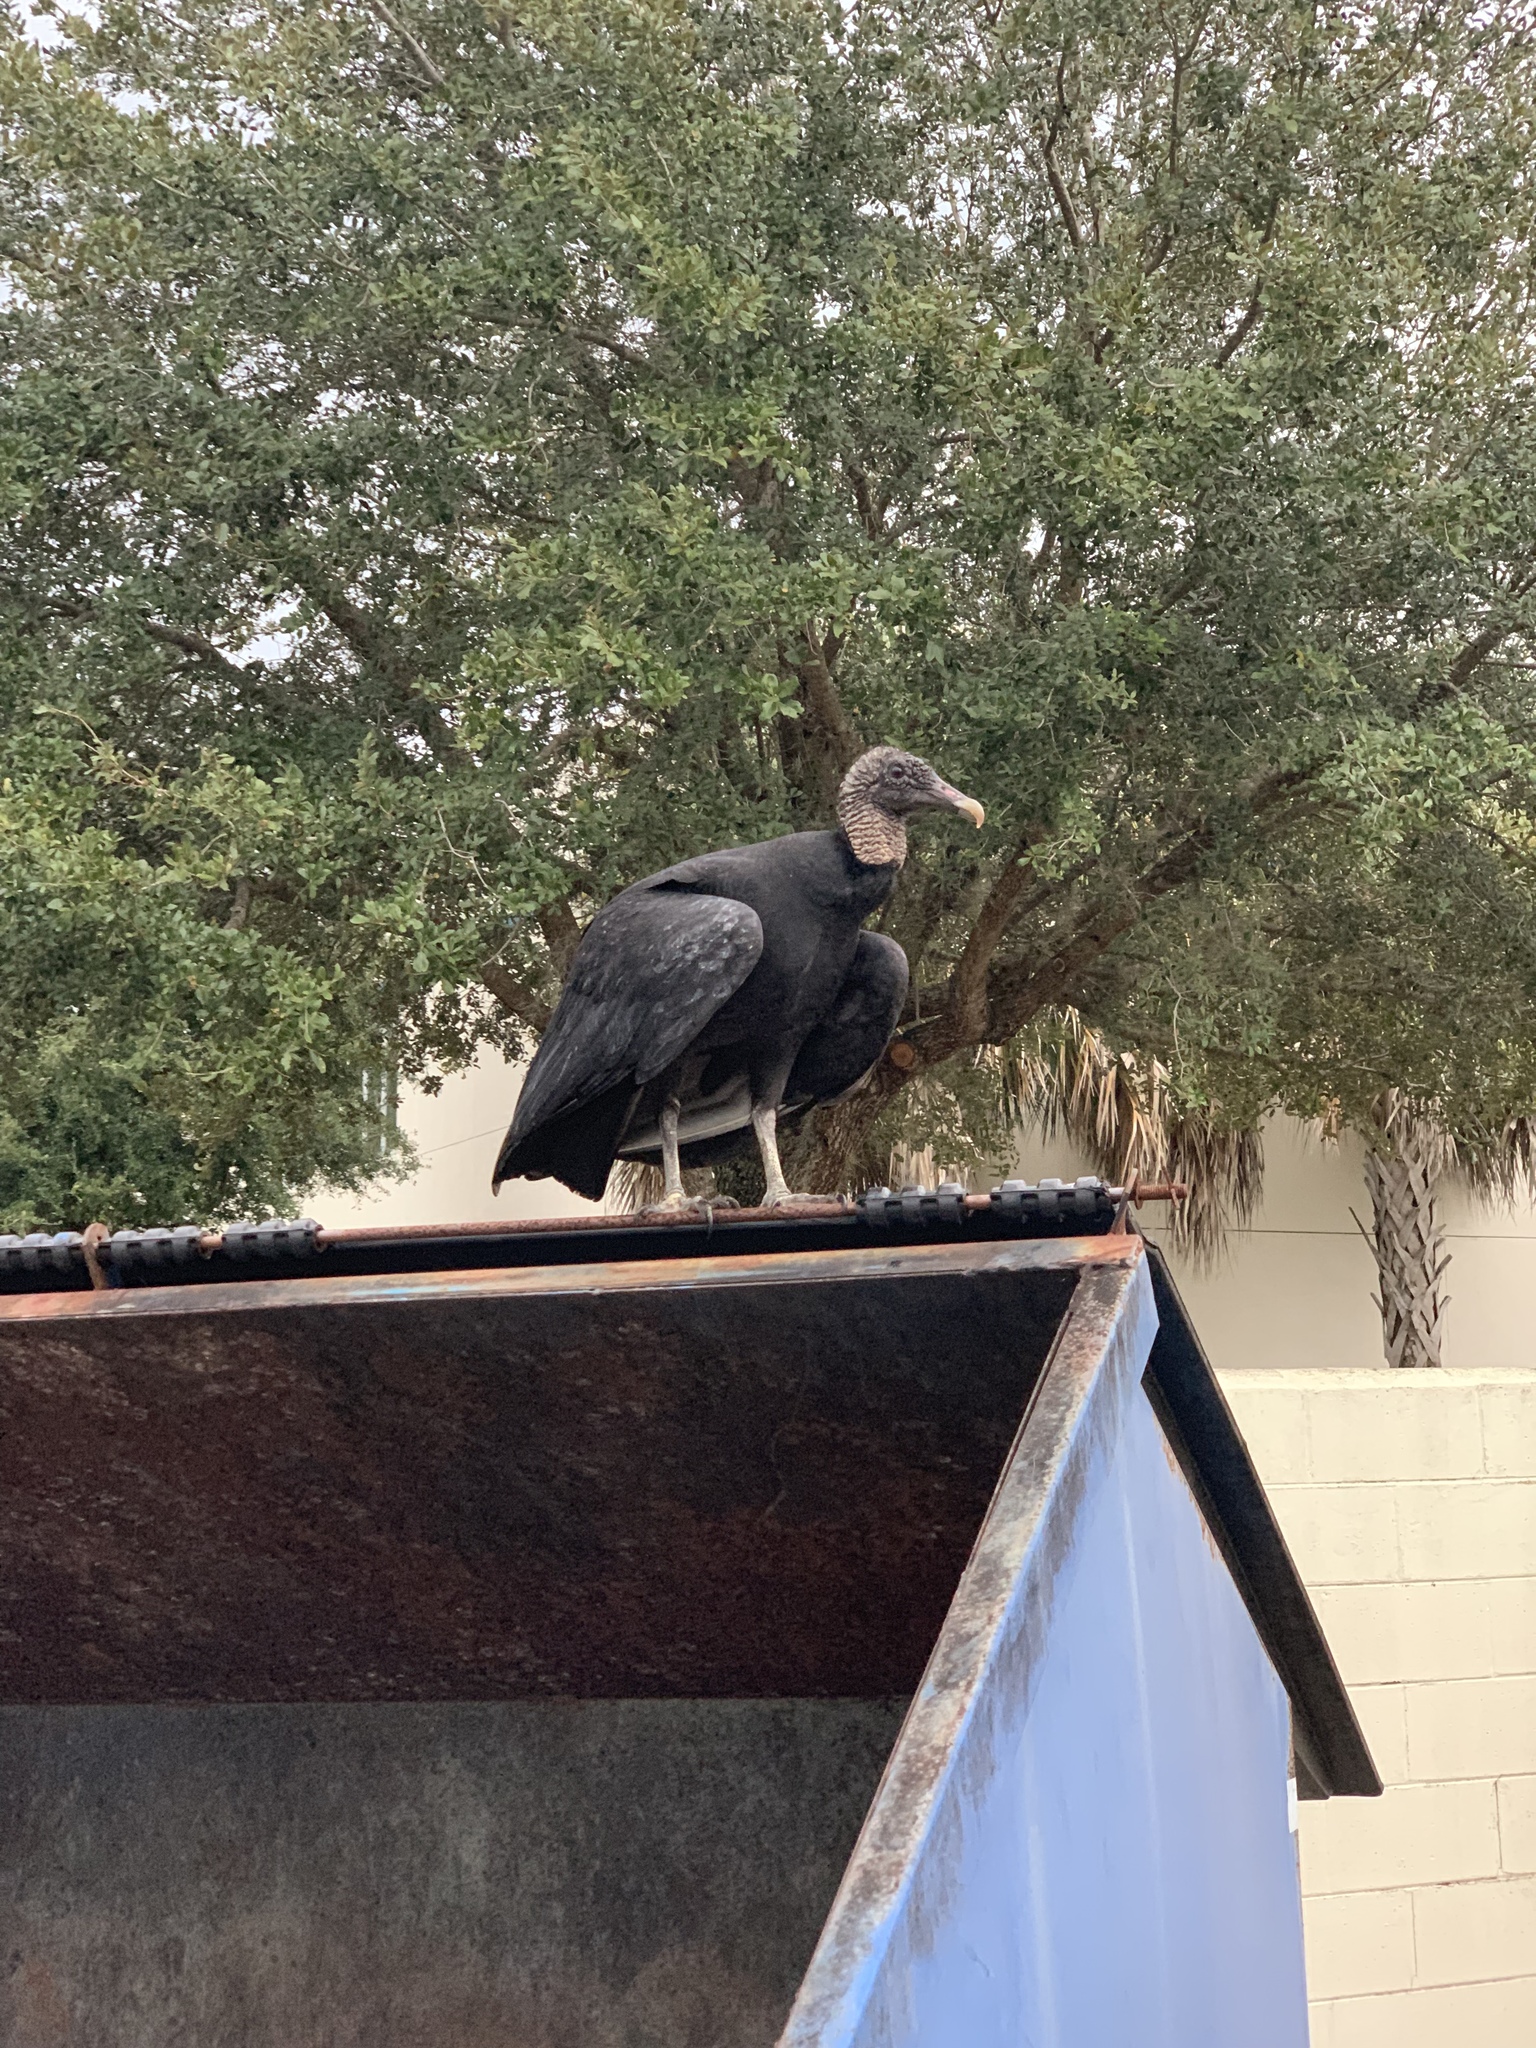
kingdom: Animalia
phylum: Chordata
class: Aves
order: Accipitriformes
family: Cathartidae
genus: Coragyps
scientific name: Coragyps atratus
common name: Black vulture
